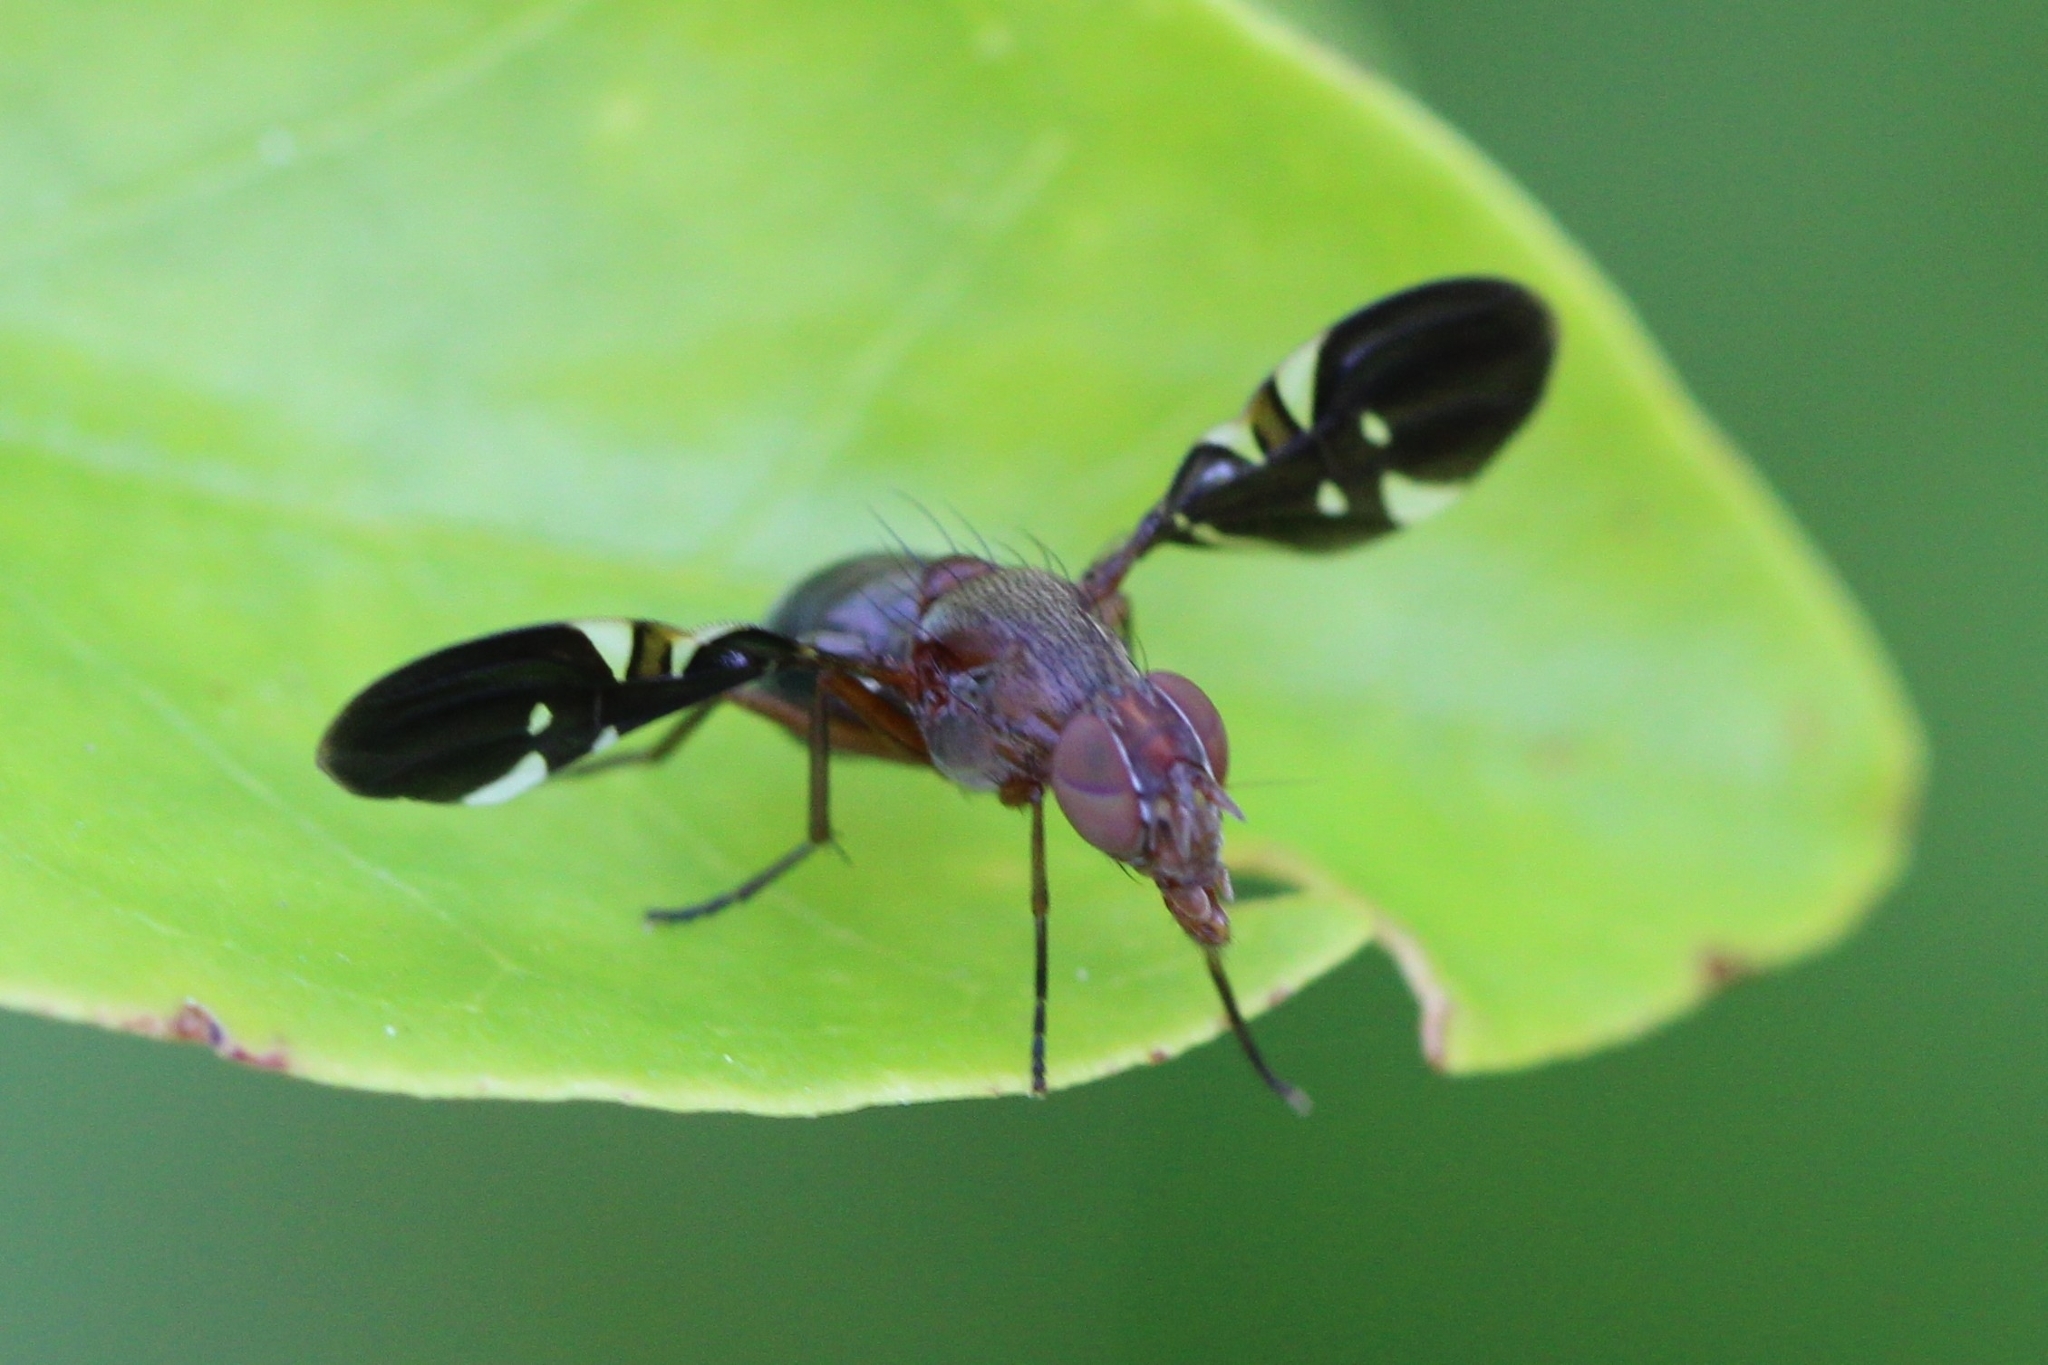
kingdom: Animalia
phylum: Arthropoda
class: Insecta
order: Diptera
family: Ulidiidae
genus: Delphinia
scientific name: Delphinia picta
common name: Common picture-winged fly
